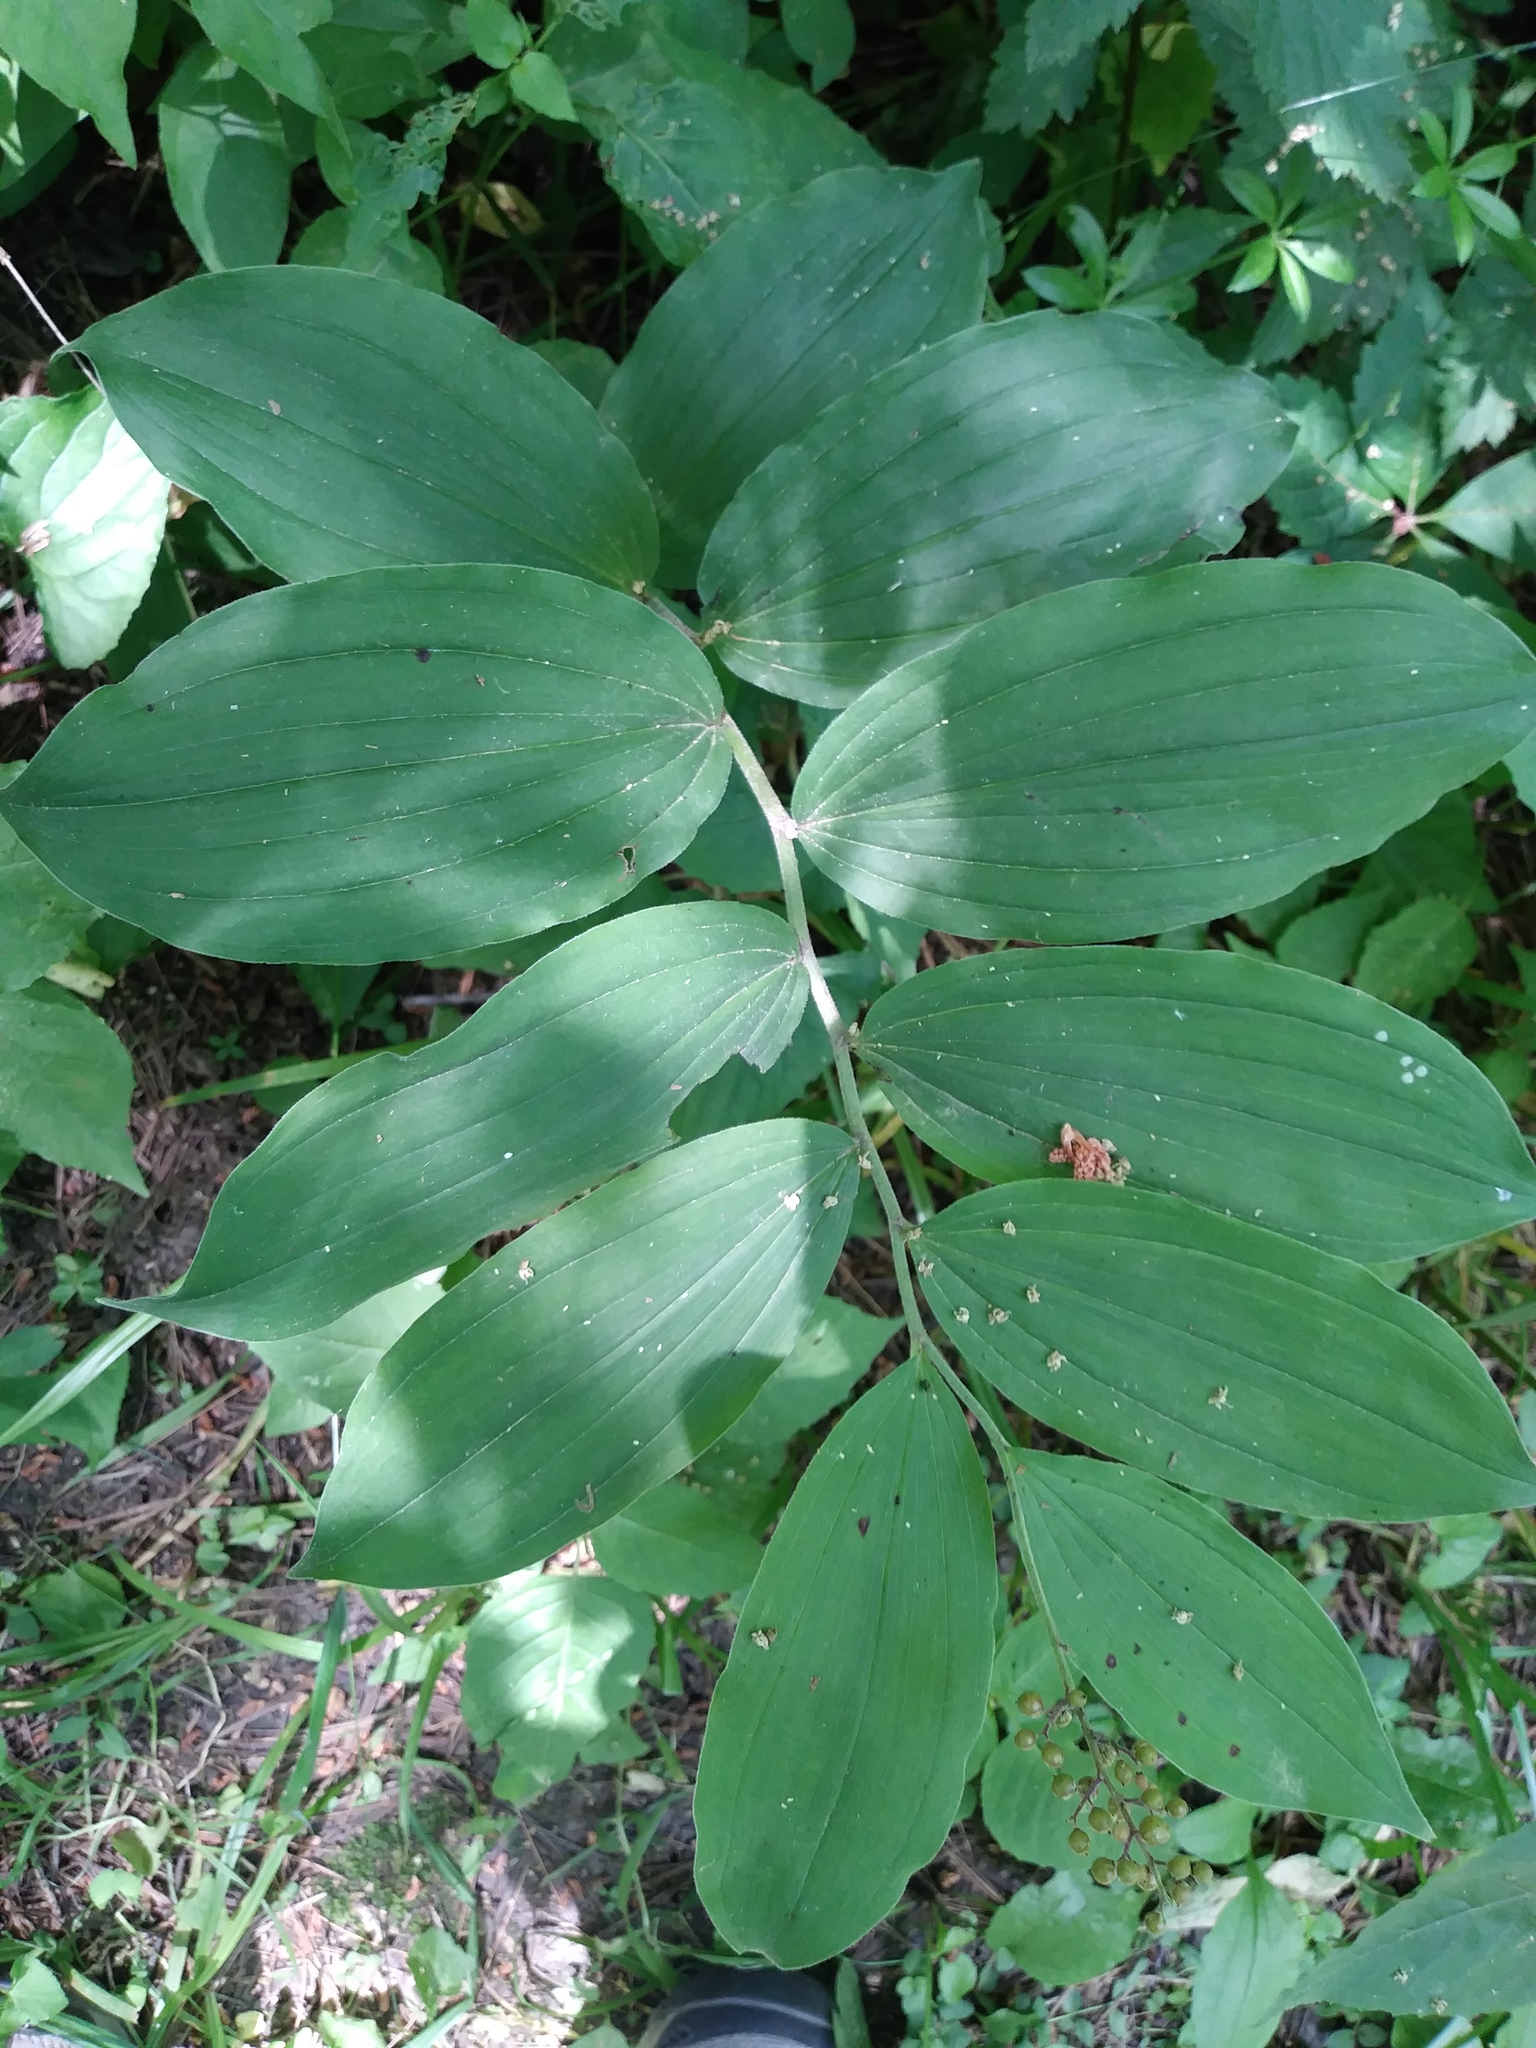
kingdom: Plantae
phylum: Tracheophyta
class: Liliopsida
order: Asparagales
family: Asparagaceae
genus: Maianthemum
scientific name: Maianthemum racemosum
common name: False spikenard
